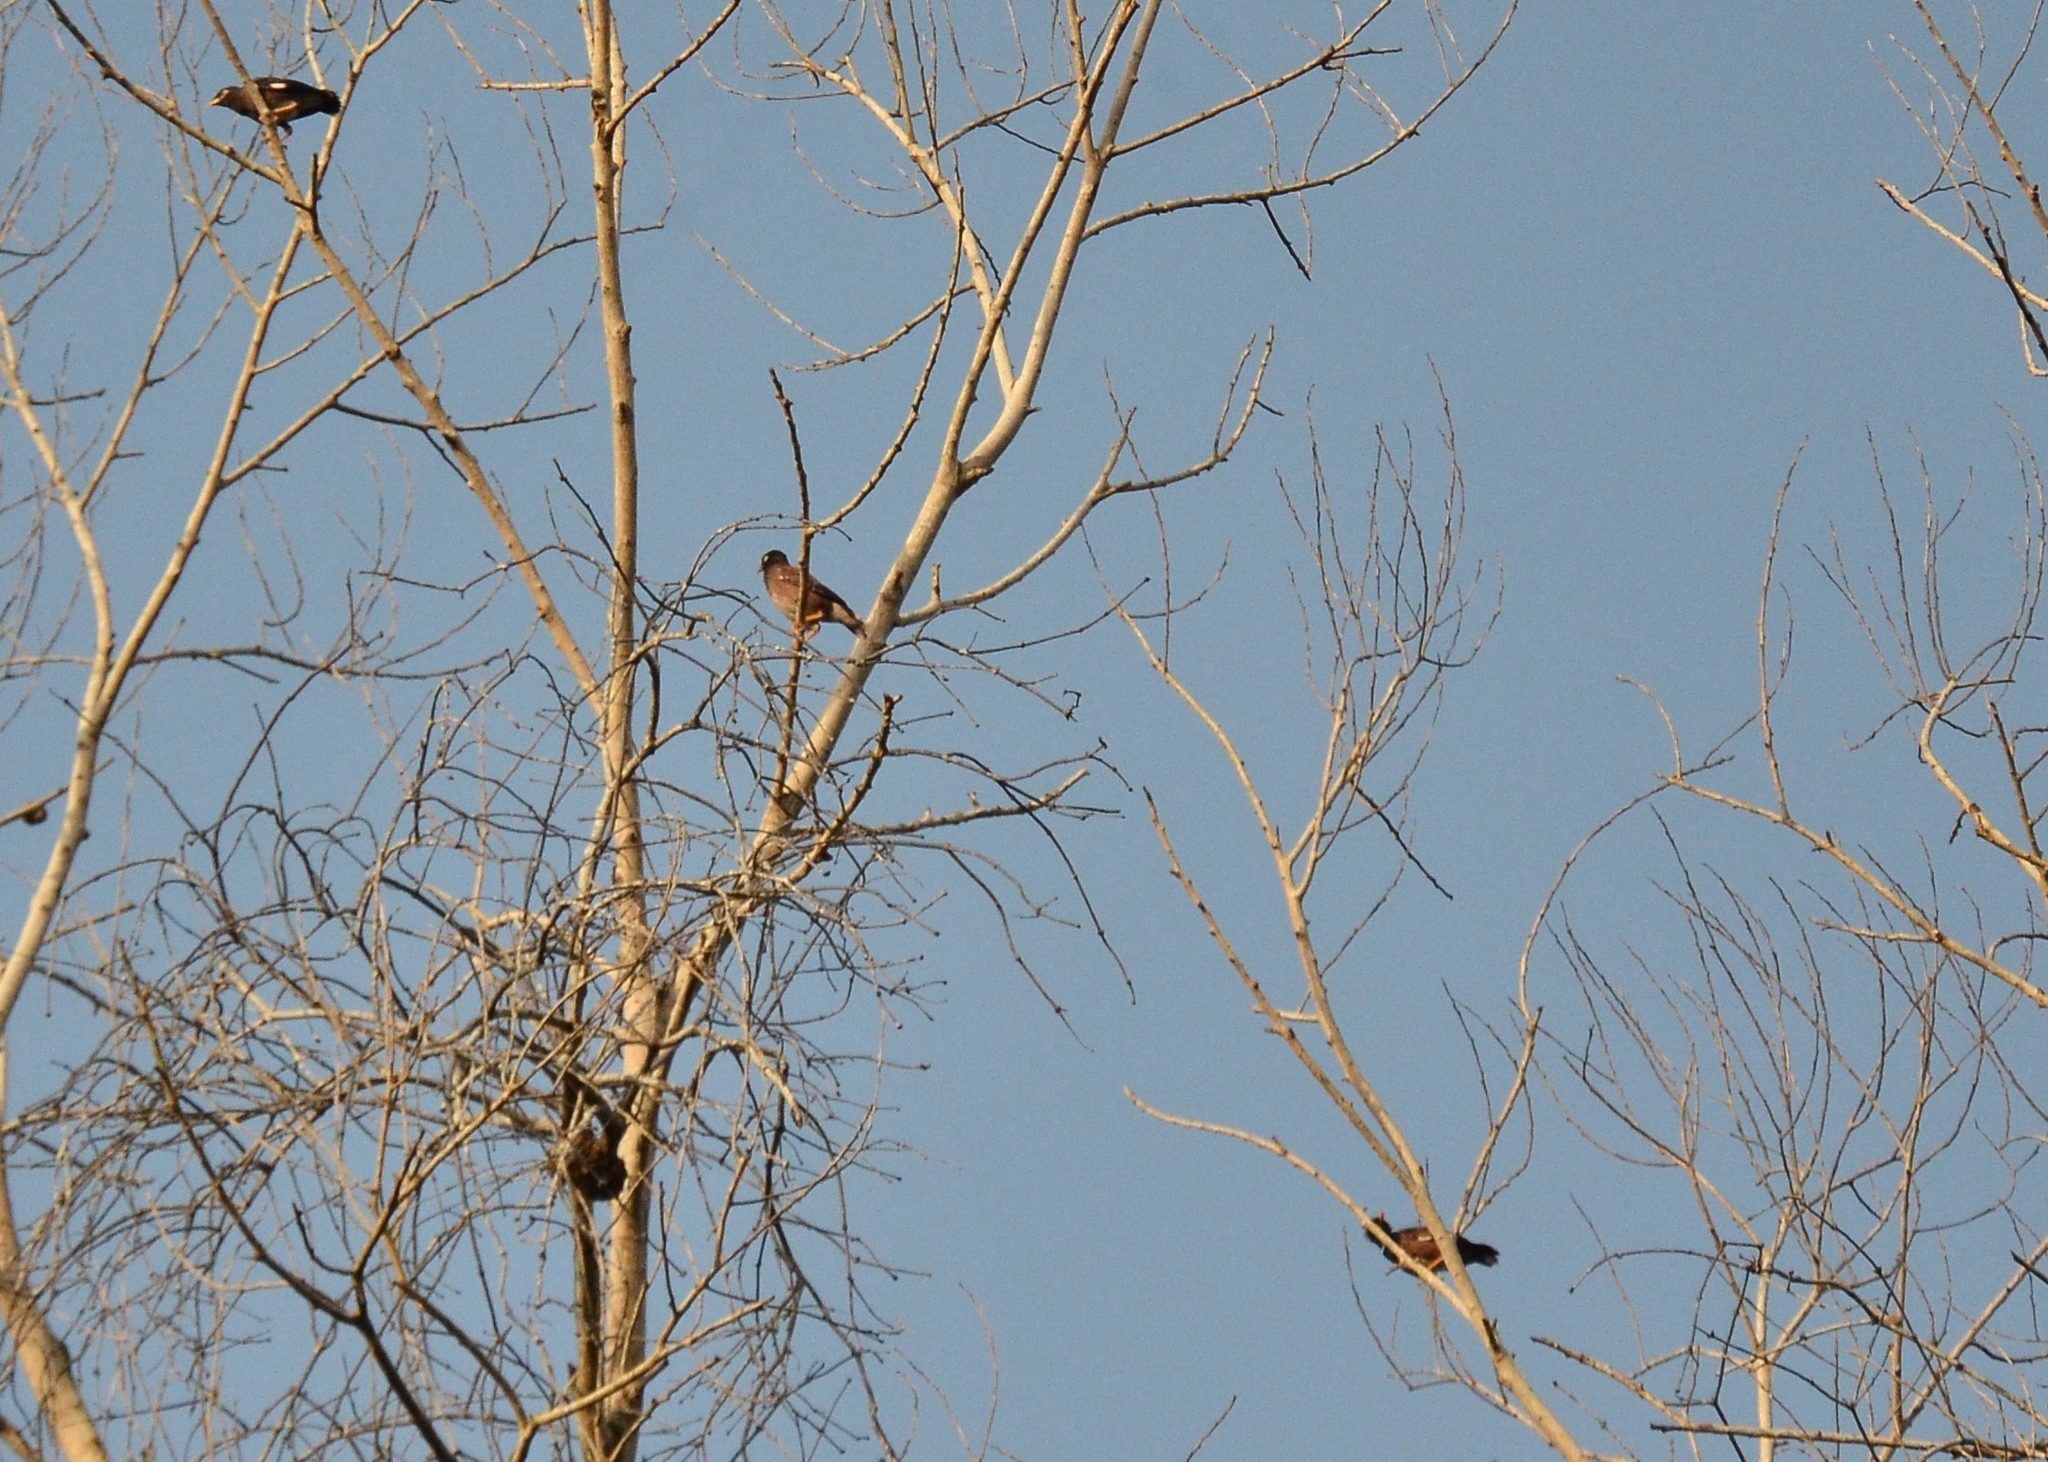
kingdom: Animalia
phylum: Chordata
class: Aves
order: Passeriformes
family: Sturnidae
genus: Acridotheres
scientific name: Acridotheres tristis
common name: Common myna
